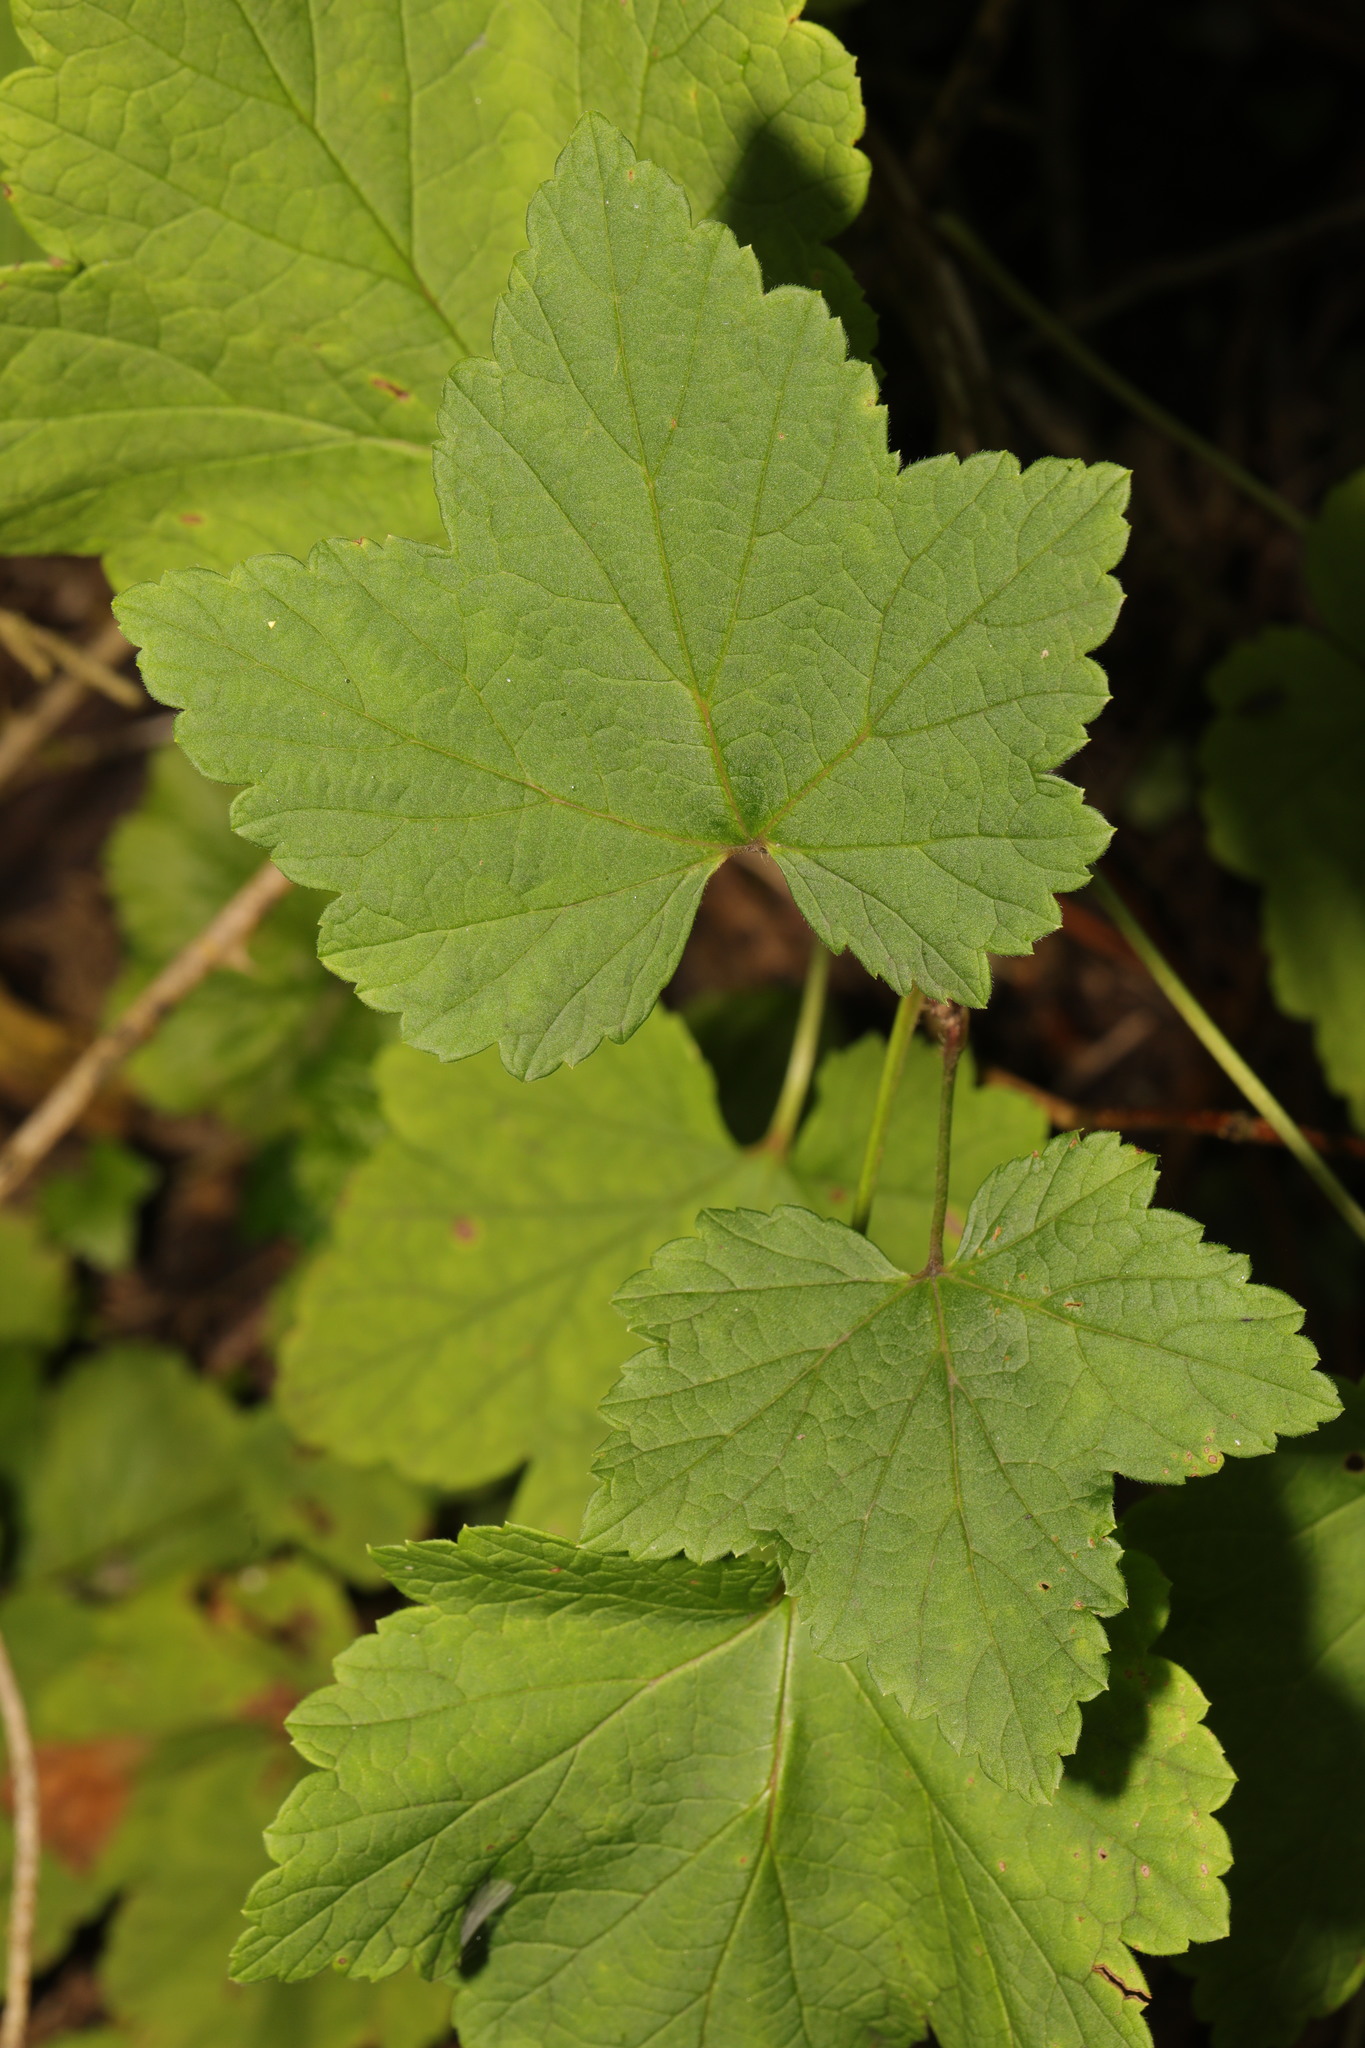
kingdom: Plantae
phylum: Tracheophyta
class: Magnoliopsida
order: Saxifragales
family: Grossulariaceae
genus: Ribes
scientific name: Ribes nigrum
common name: Black currant
